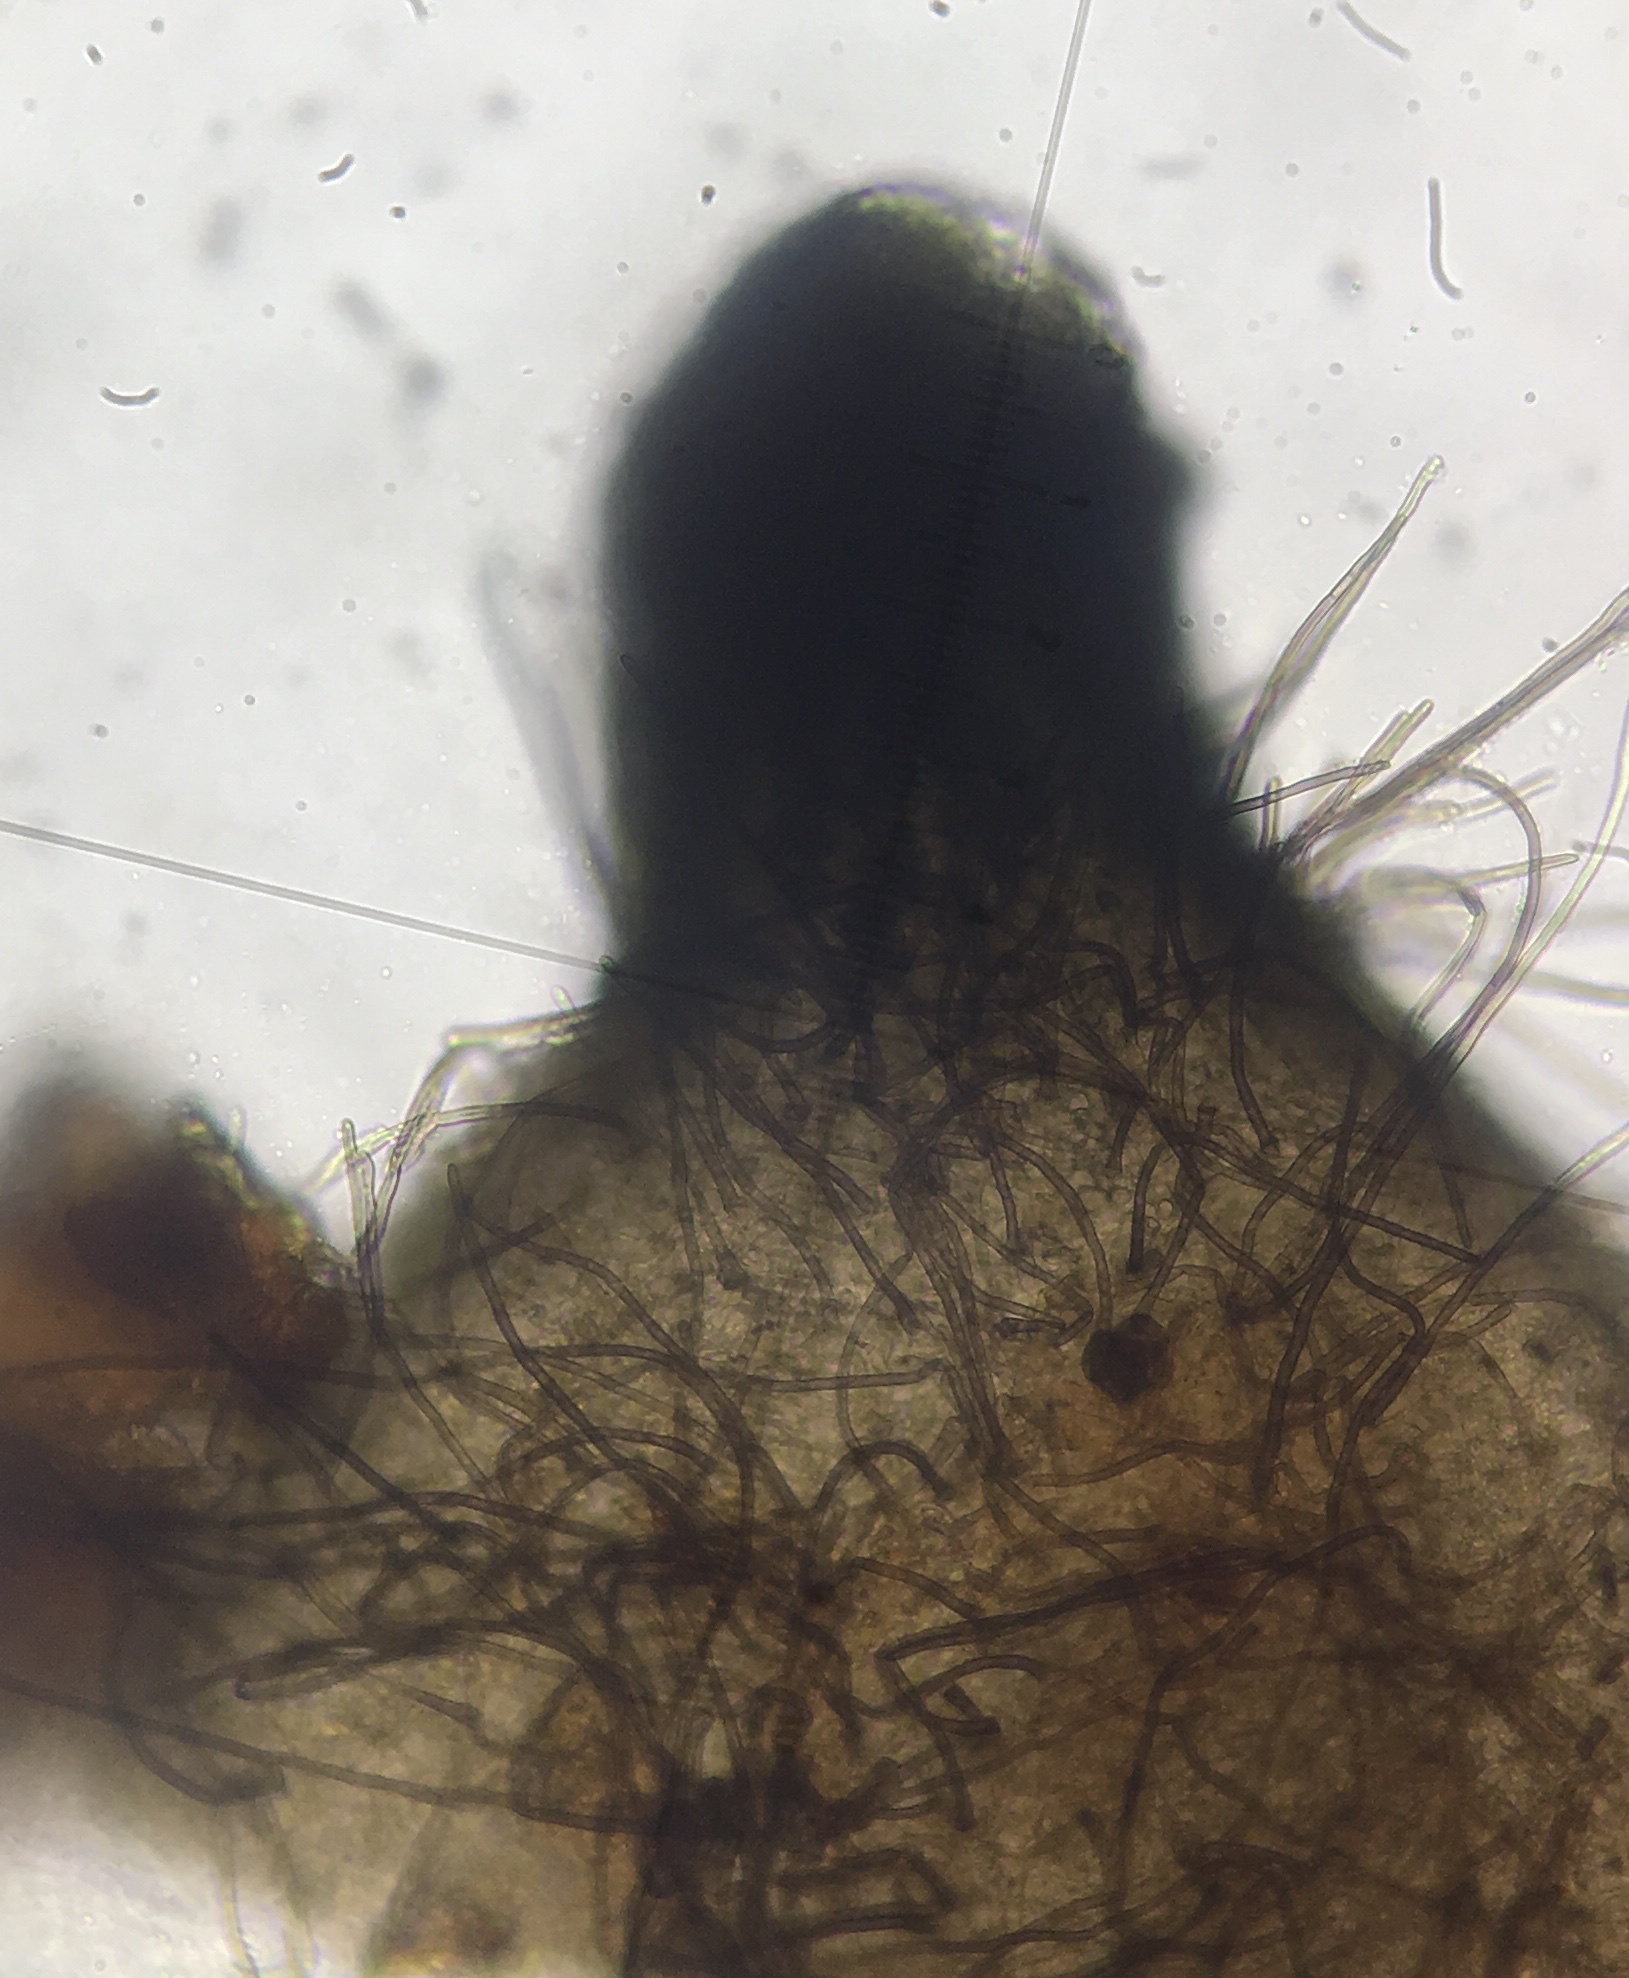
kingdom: Fungi
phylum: Ascomycota
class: Sordariomycetes
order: Sordariales
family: Podosporaceae
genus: Podospora
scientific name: Podospora leporina
